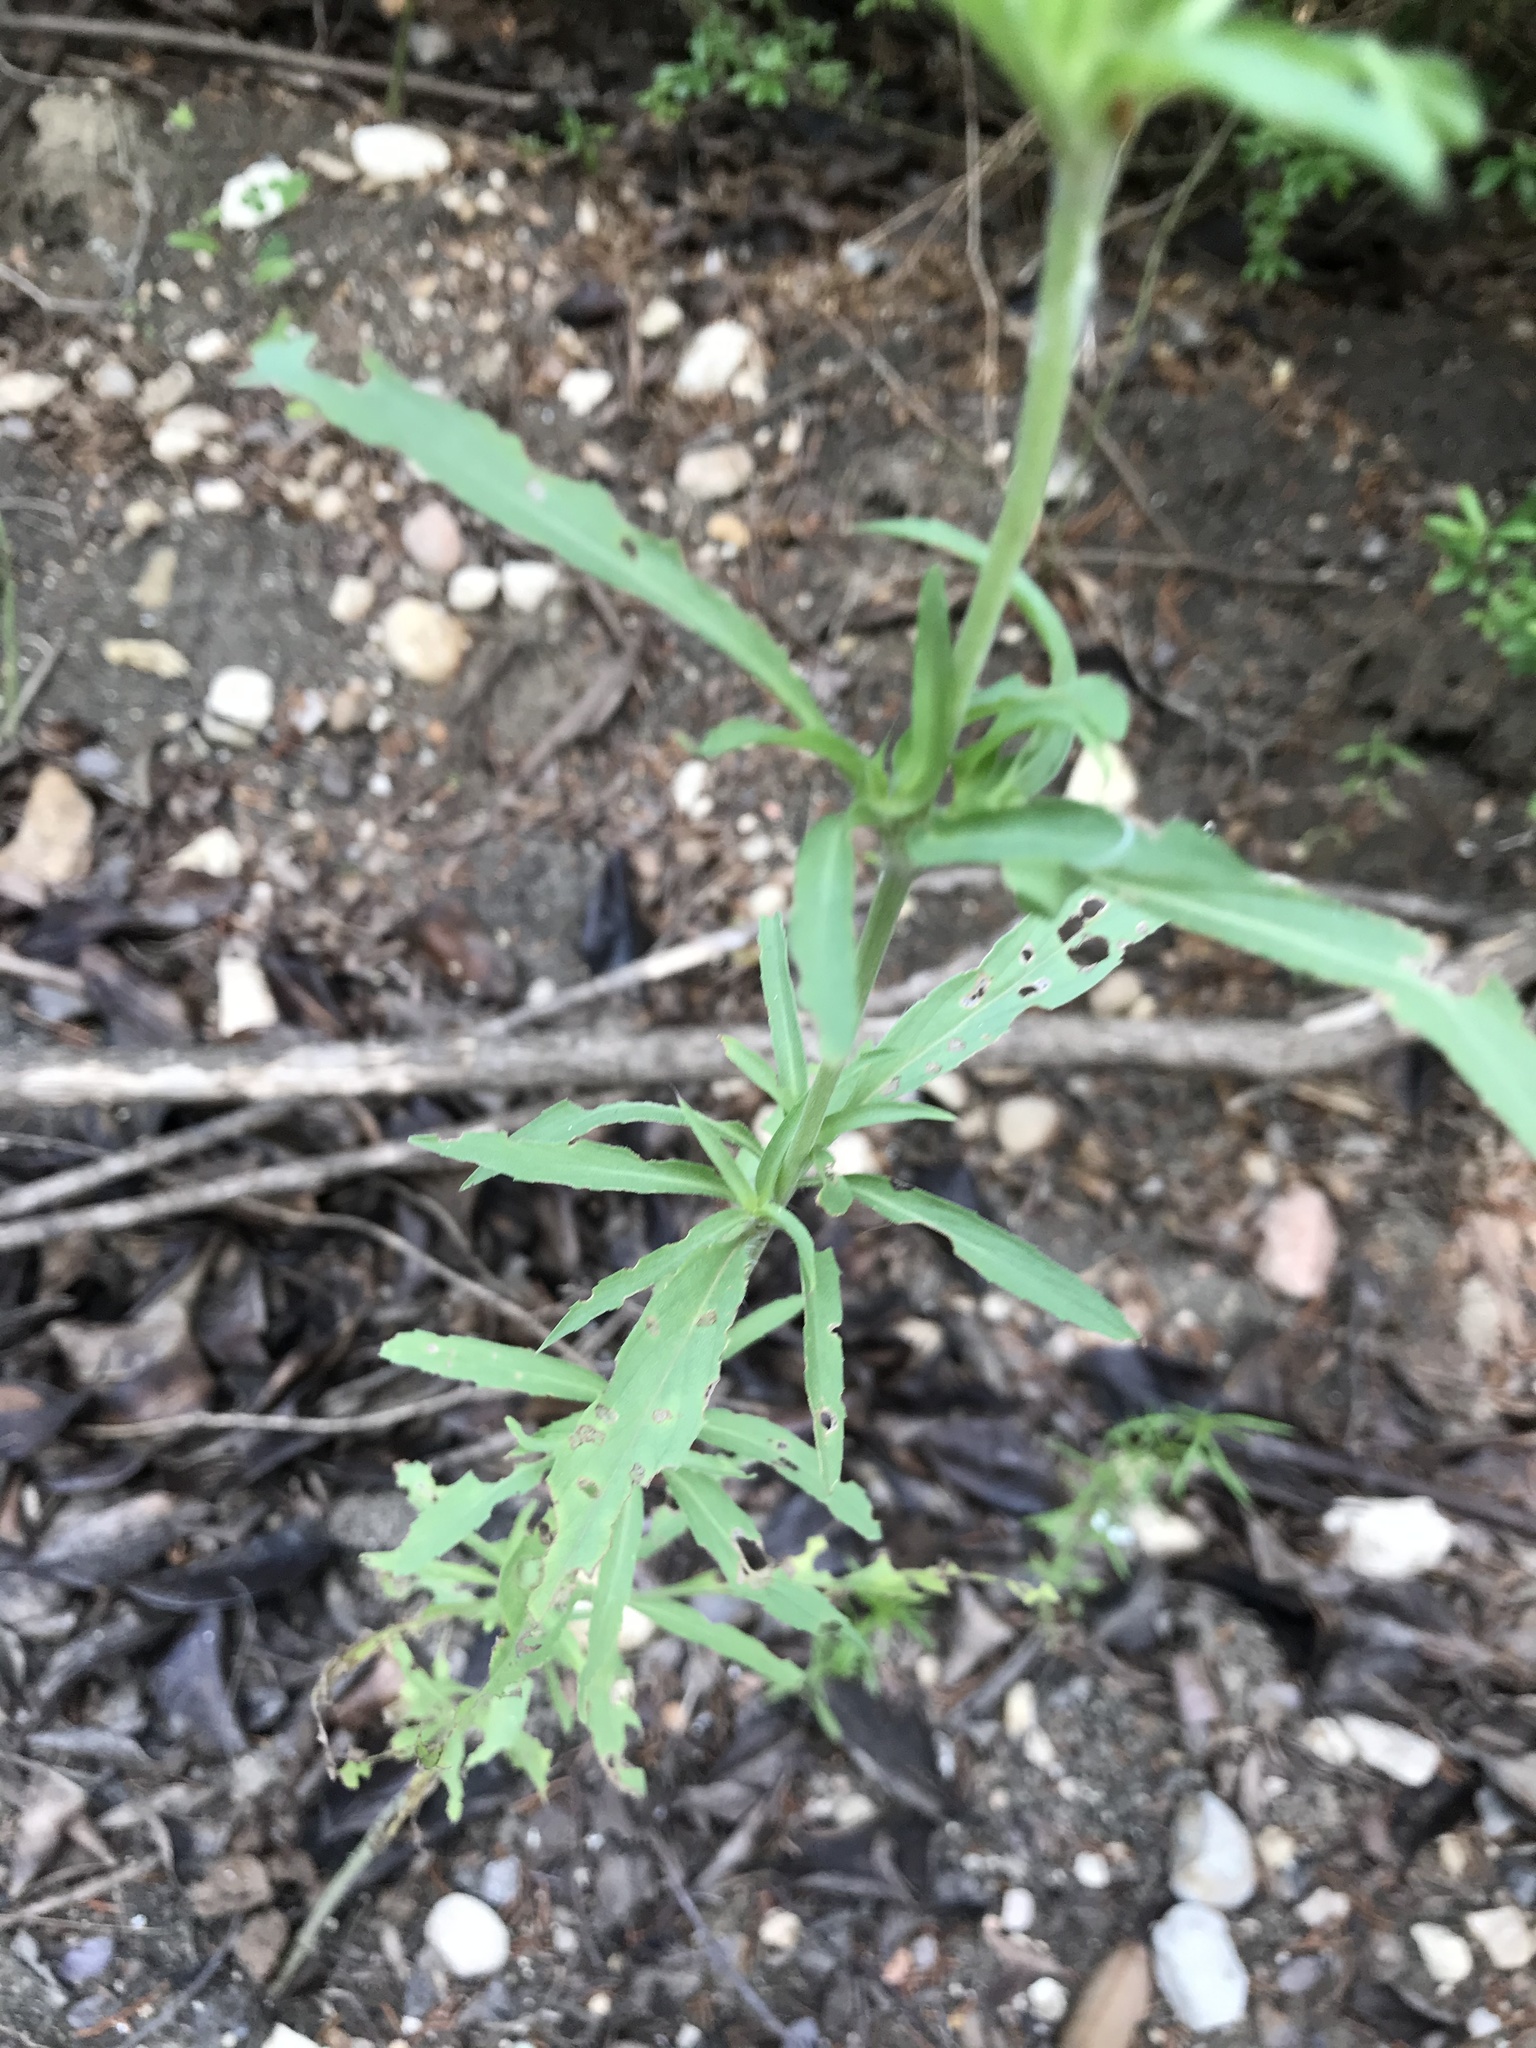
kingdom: Plantae
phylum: Tracheophyta
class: Magnoliopsida
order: Lamiales
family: Lamiaceae
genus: Monarda
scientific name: Monarda citriodora
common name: Lemon beebalm
